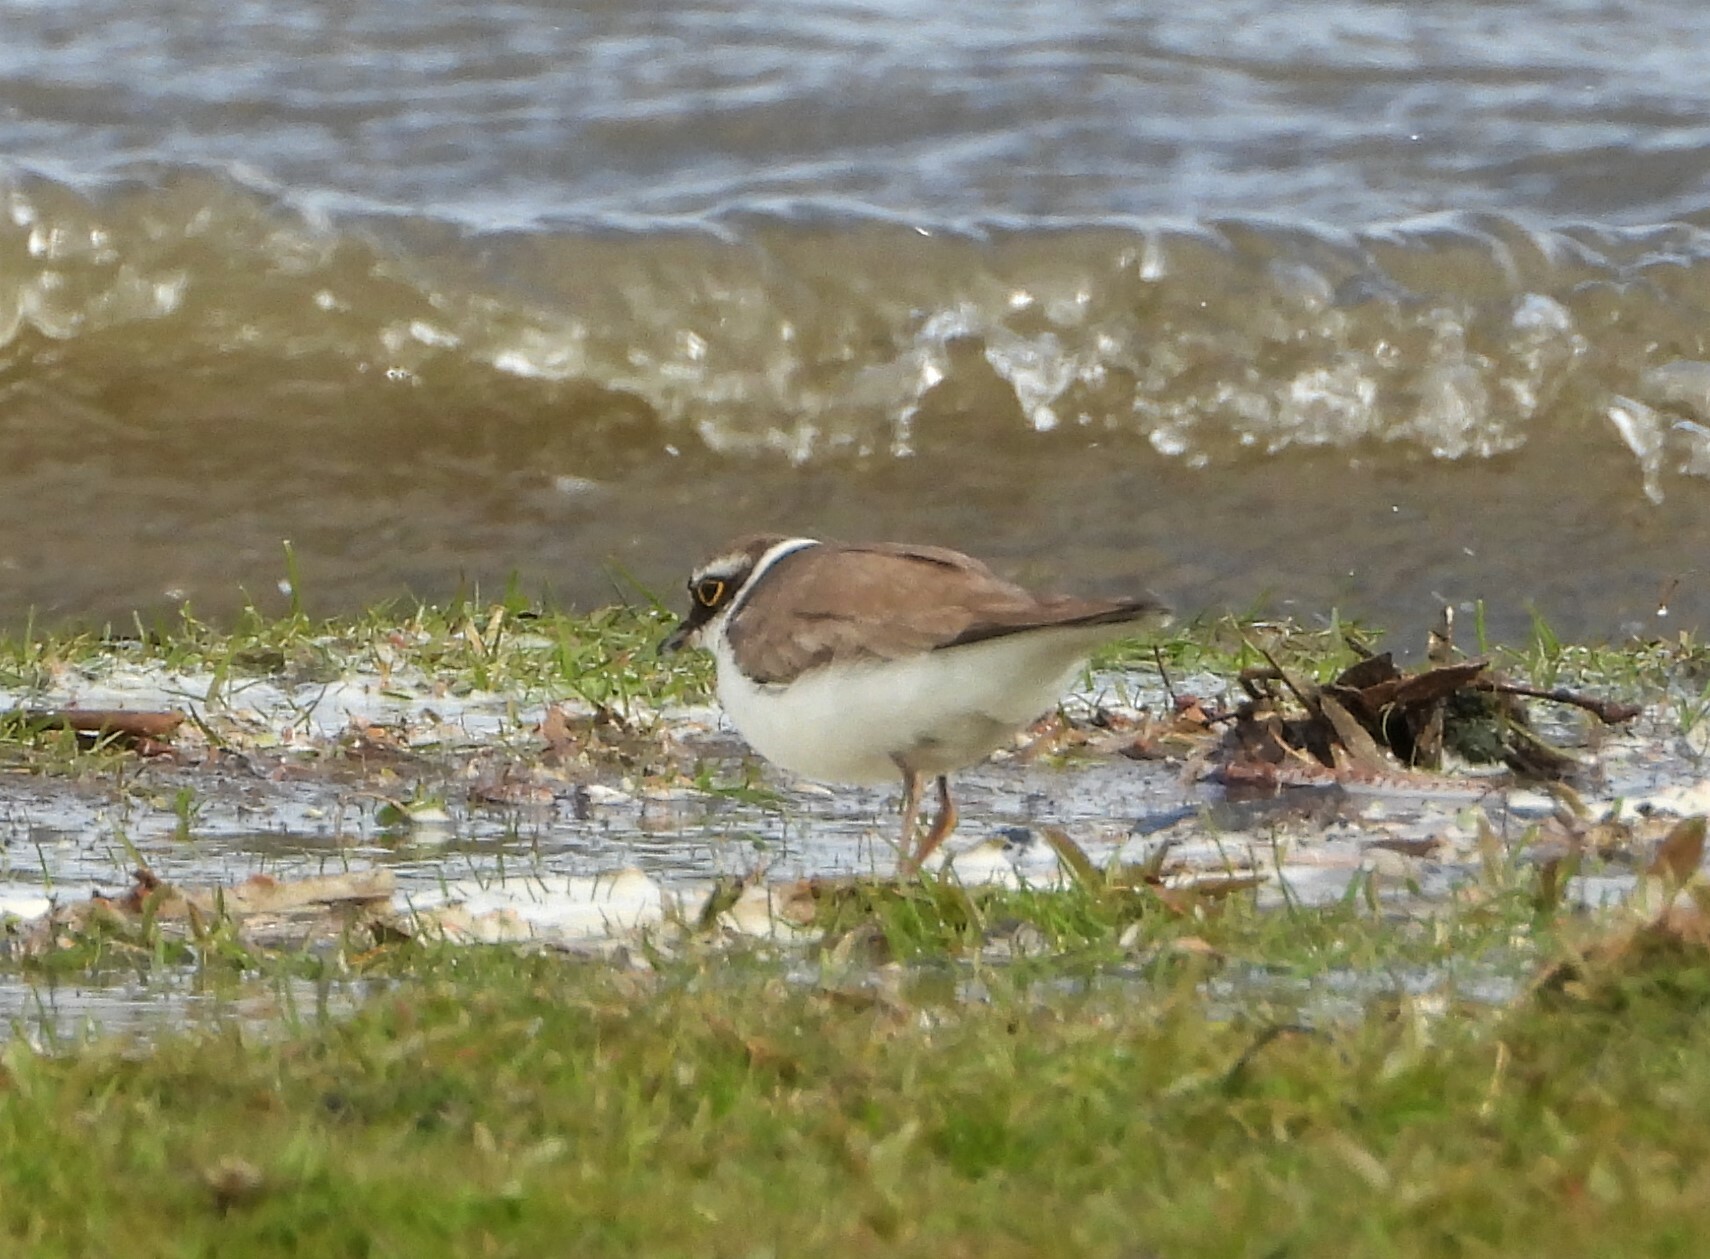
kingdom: Animalia
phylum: Chordata
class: Aves
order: Charadriiformes
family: Charadriidae
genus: Charadrius
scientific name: Charadrius dubius
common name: Little ringed plover
